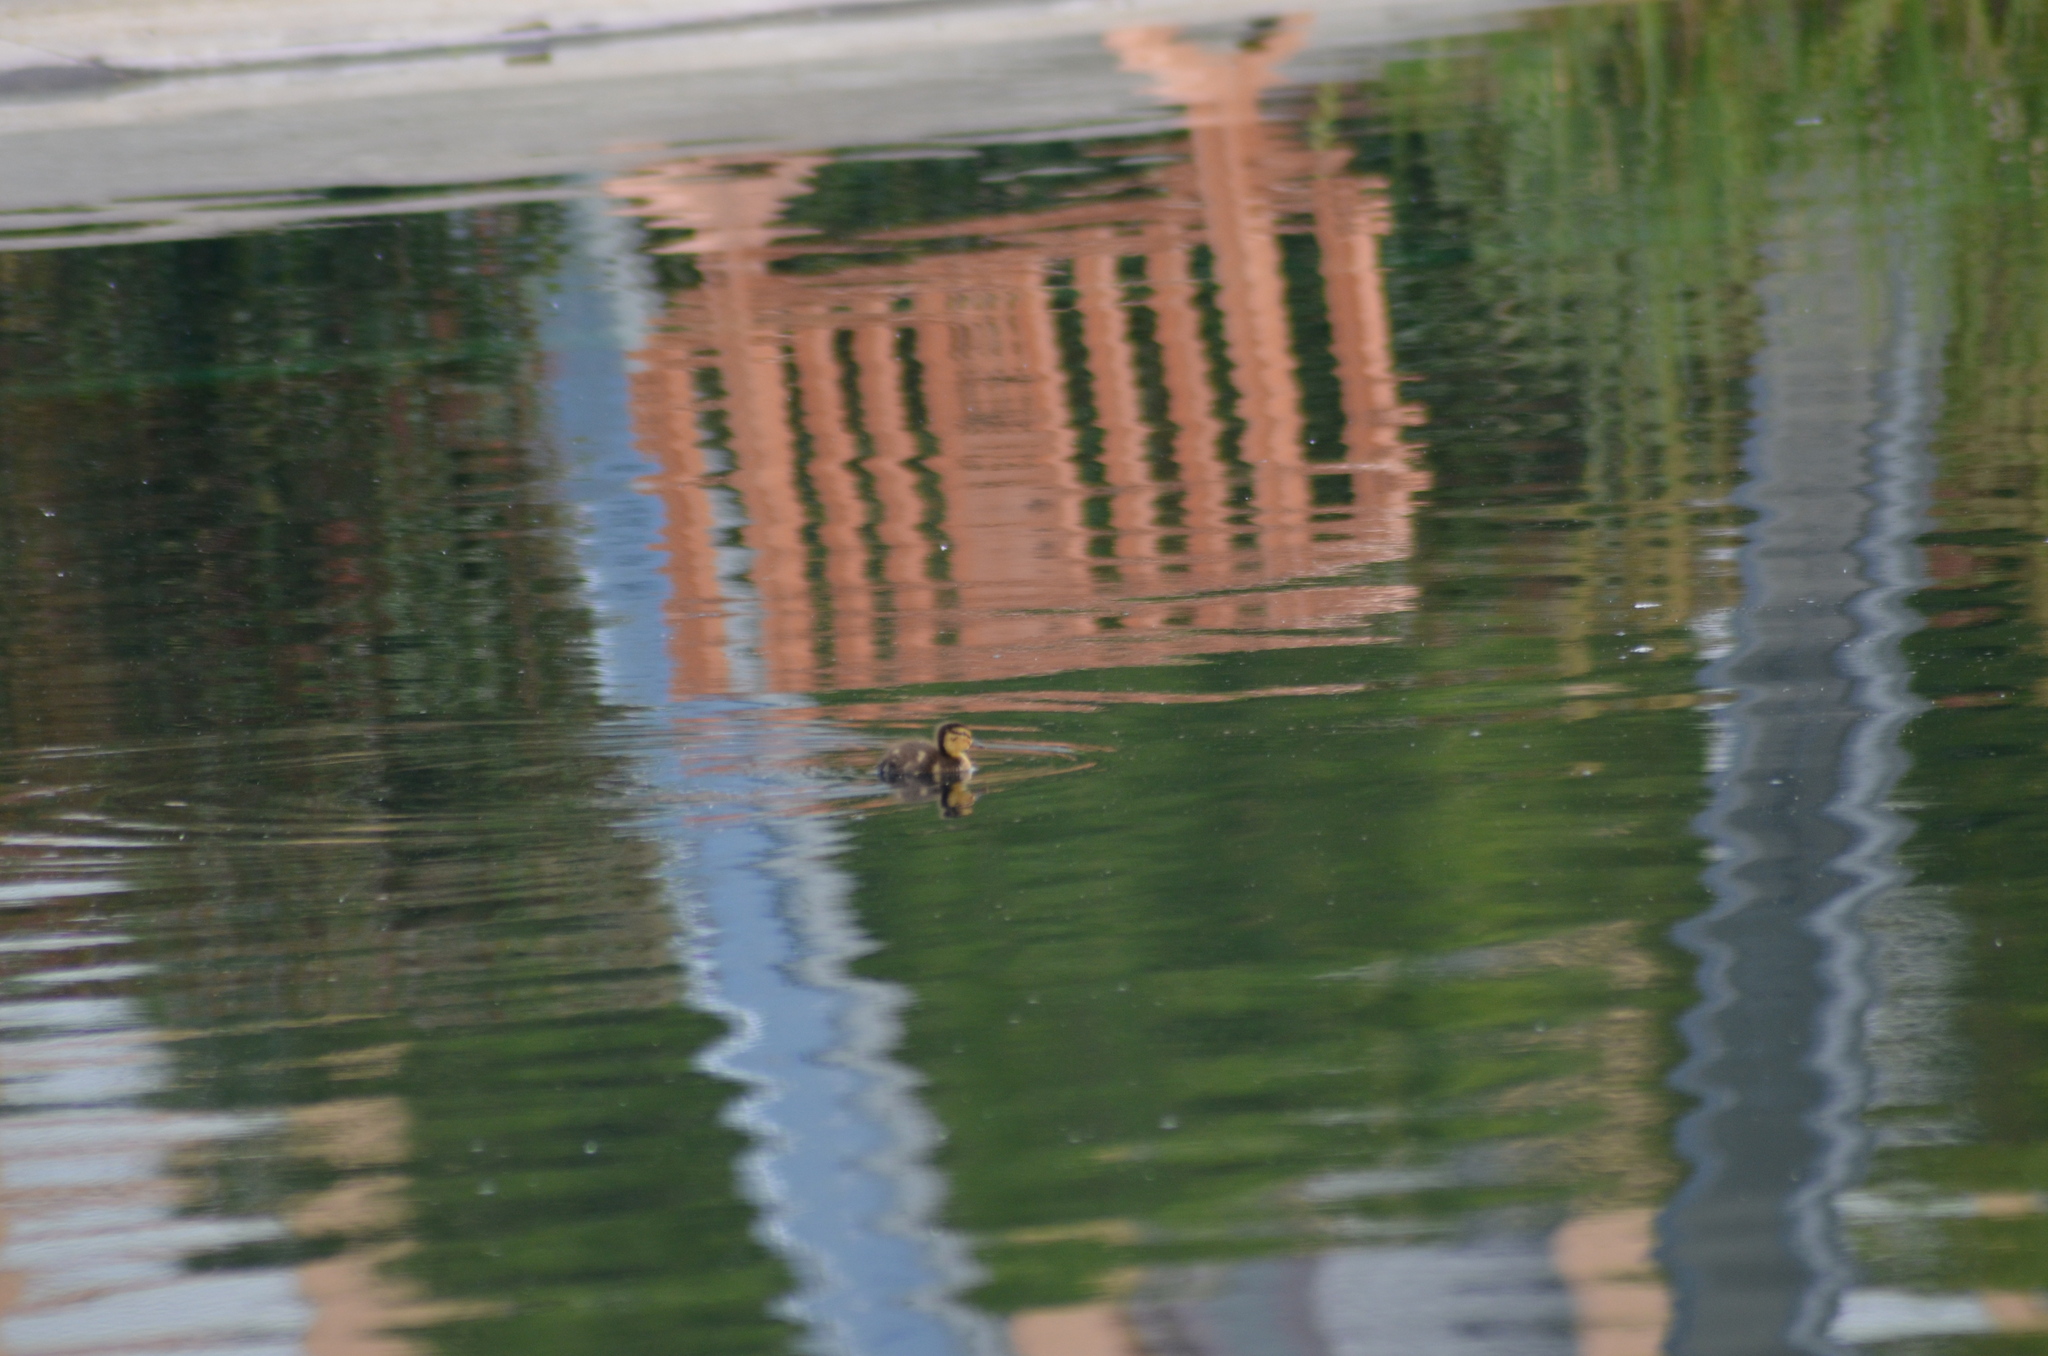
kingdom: Animalia
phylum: Chordata
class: Aves
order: Anseriformes
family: Anatidae
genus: Anas
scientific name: Anas platyrhynchos
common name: Mallard
